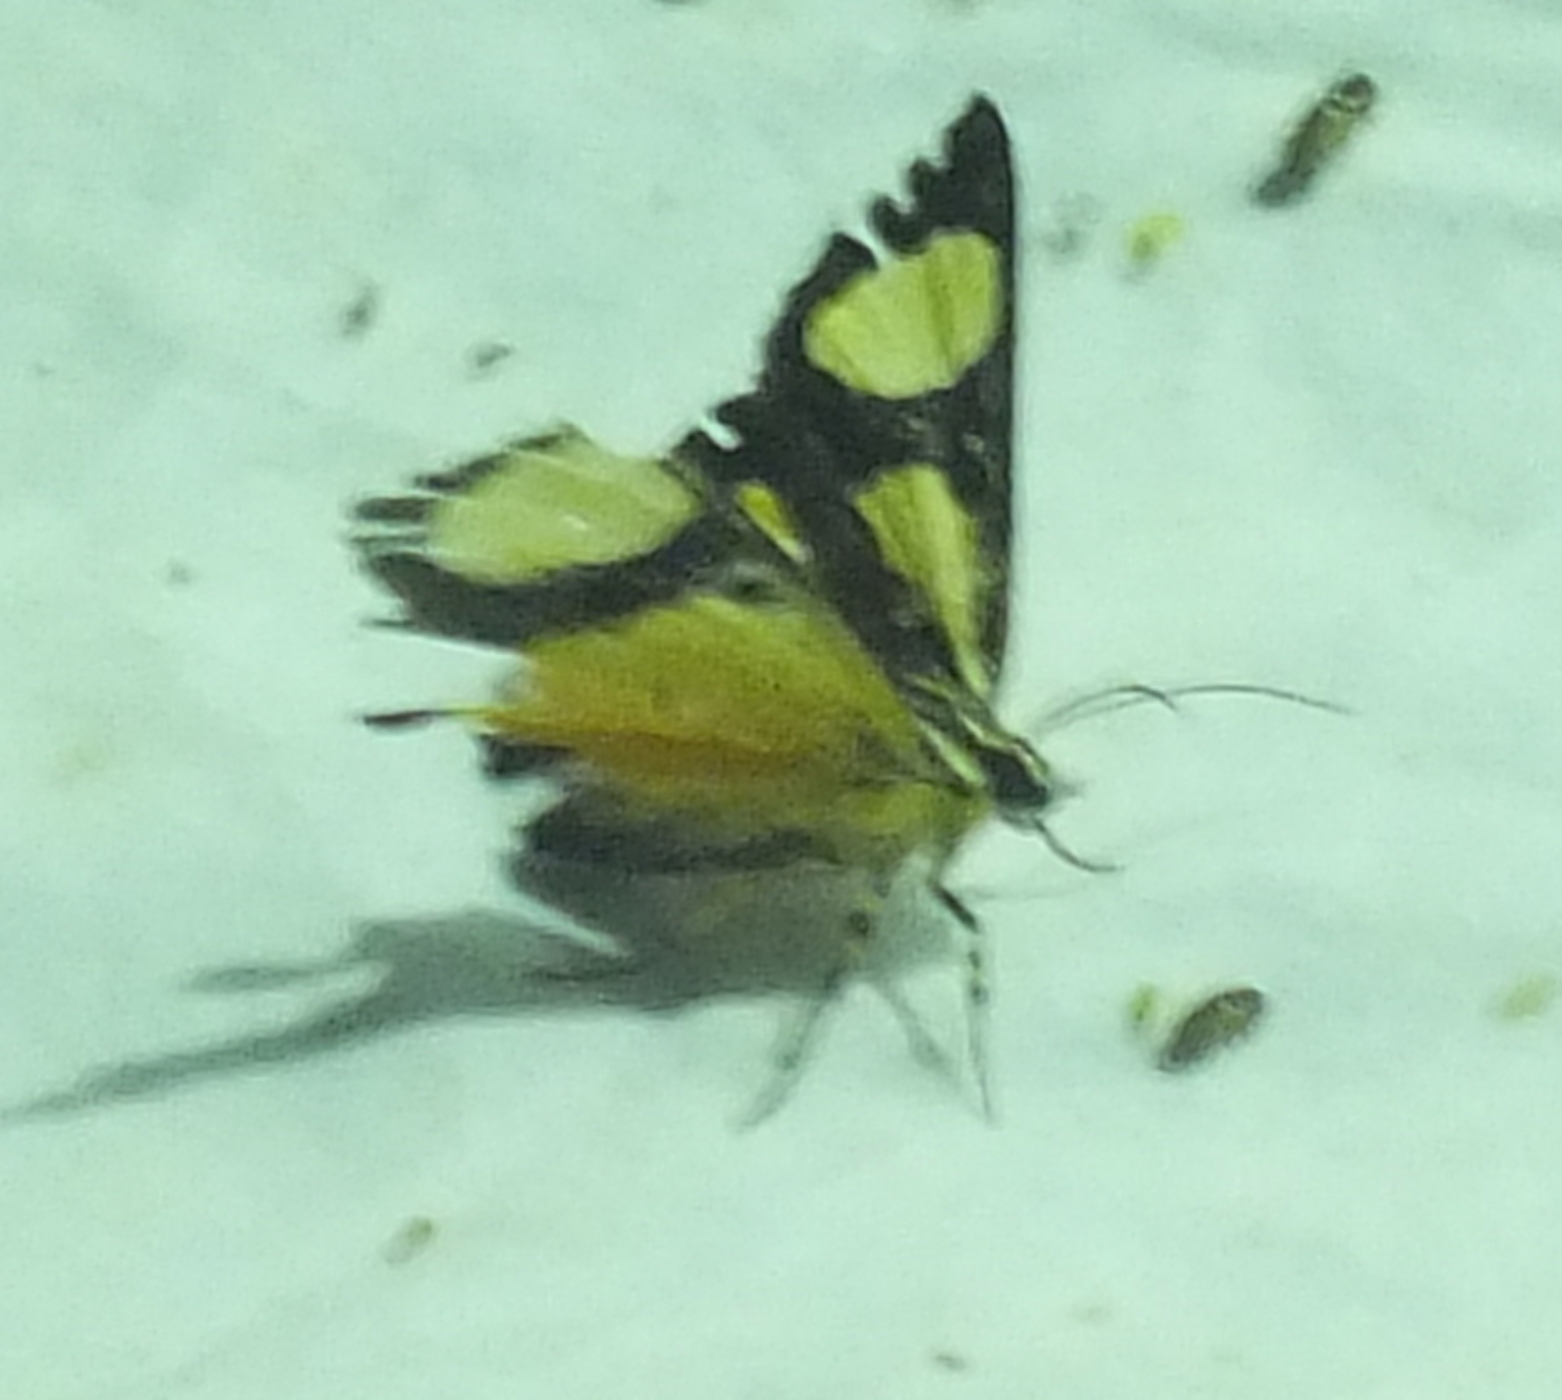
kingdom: Animalia
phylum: Arthropoda
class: Insecta
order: Lepidoptera
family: Noctuidae
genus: Agoma
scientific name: Agoma trimenii
